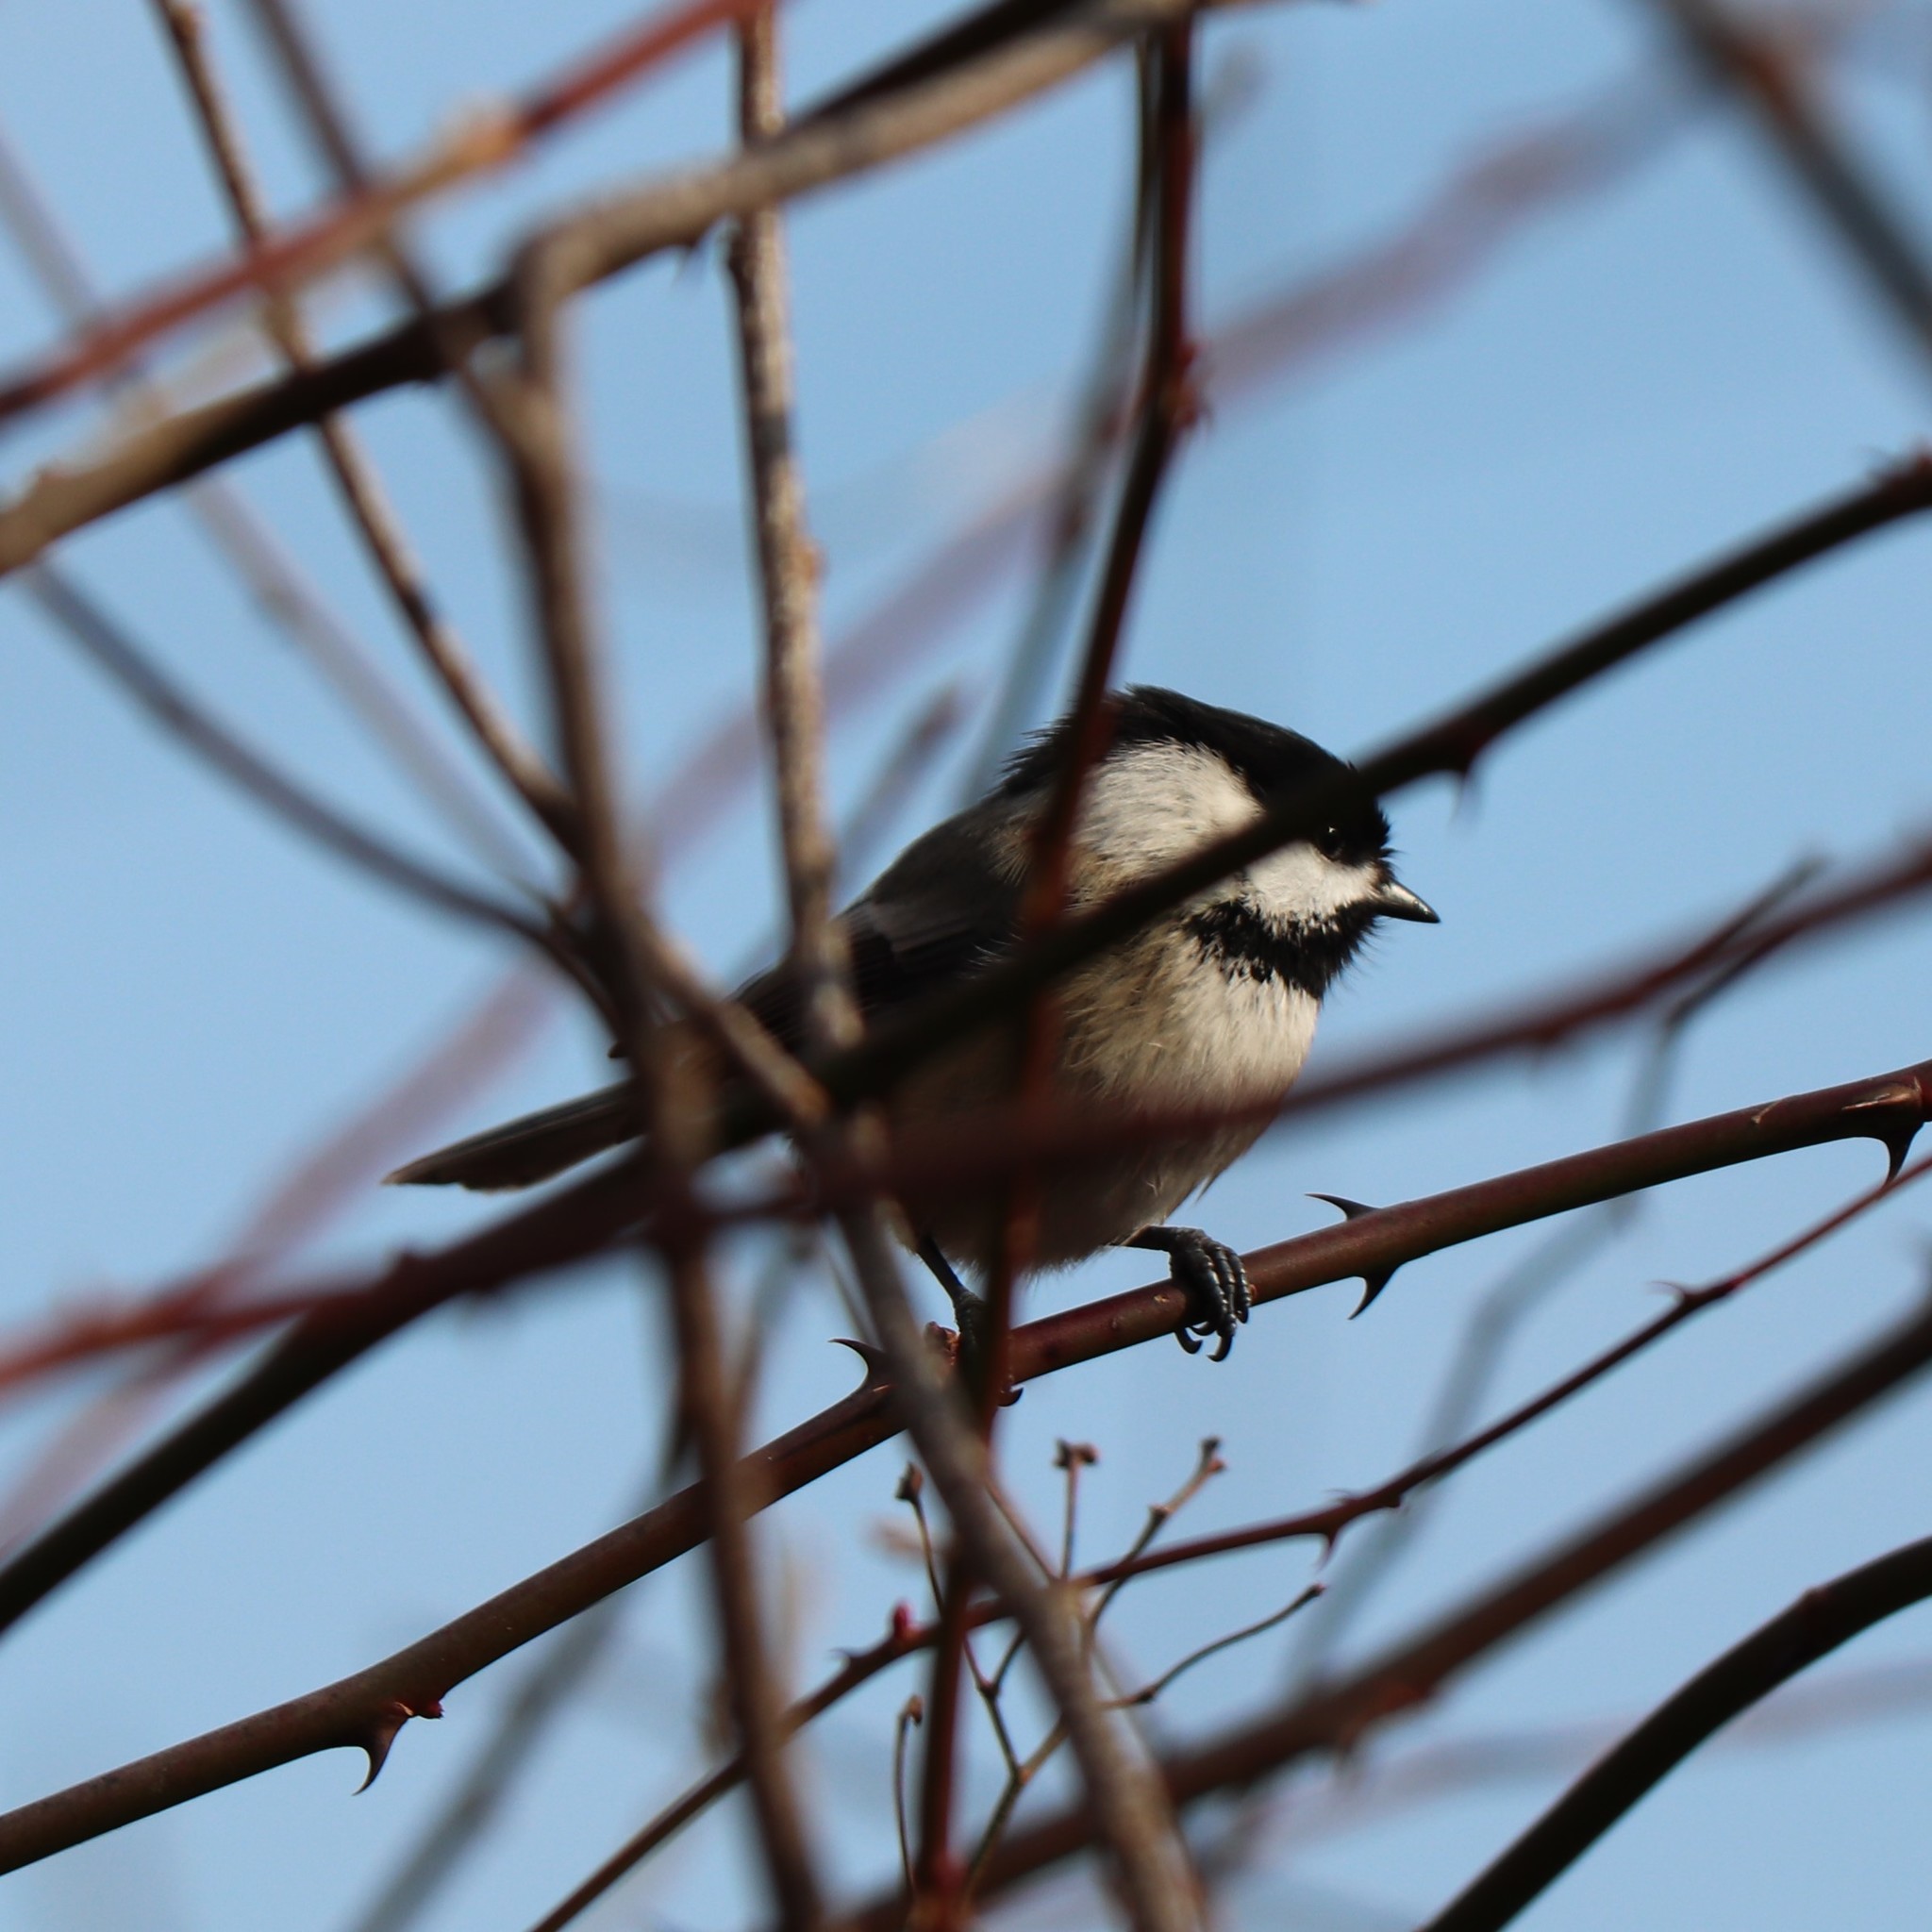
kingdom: Animalia
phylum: Chordata
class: Aves
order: Passeriformes
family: Paridae
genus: Poecile
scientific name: Poecile atricapillus
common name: Black-capped chickadee
